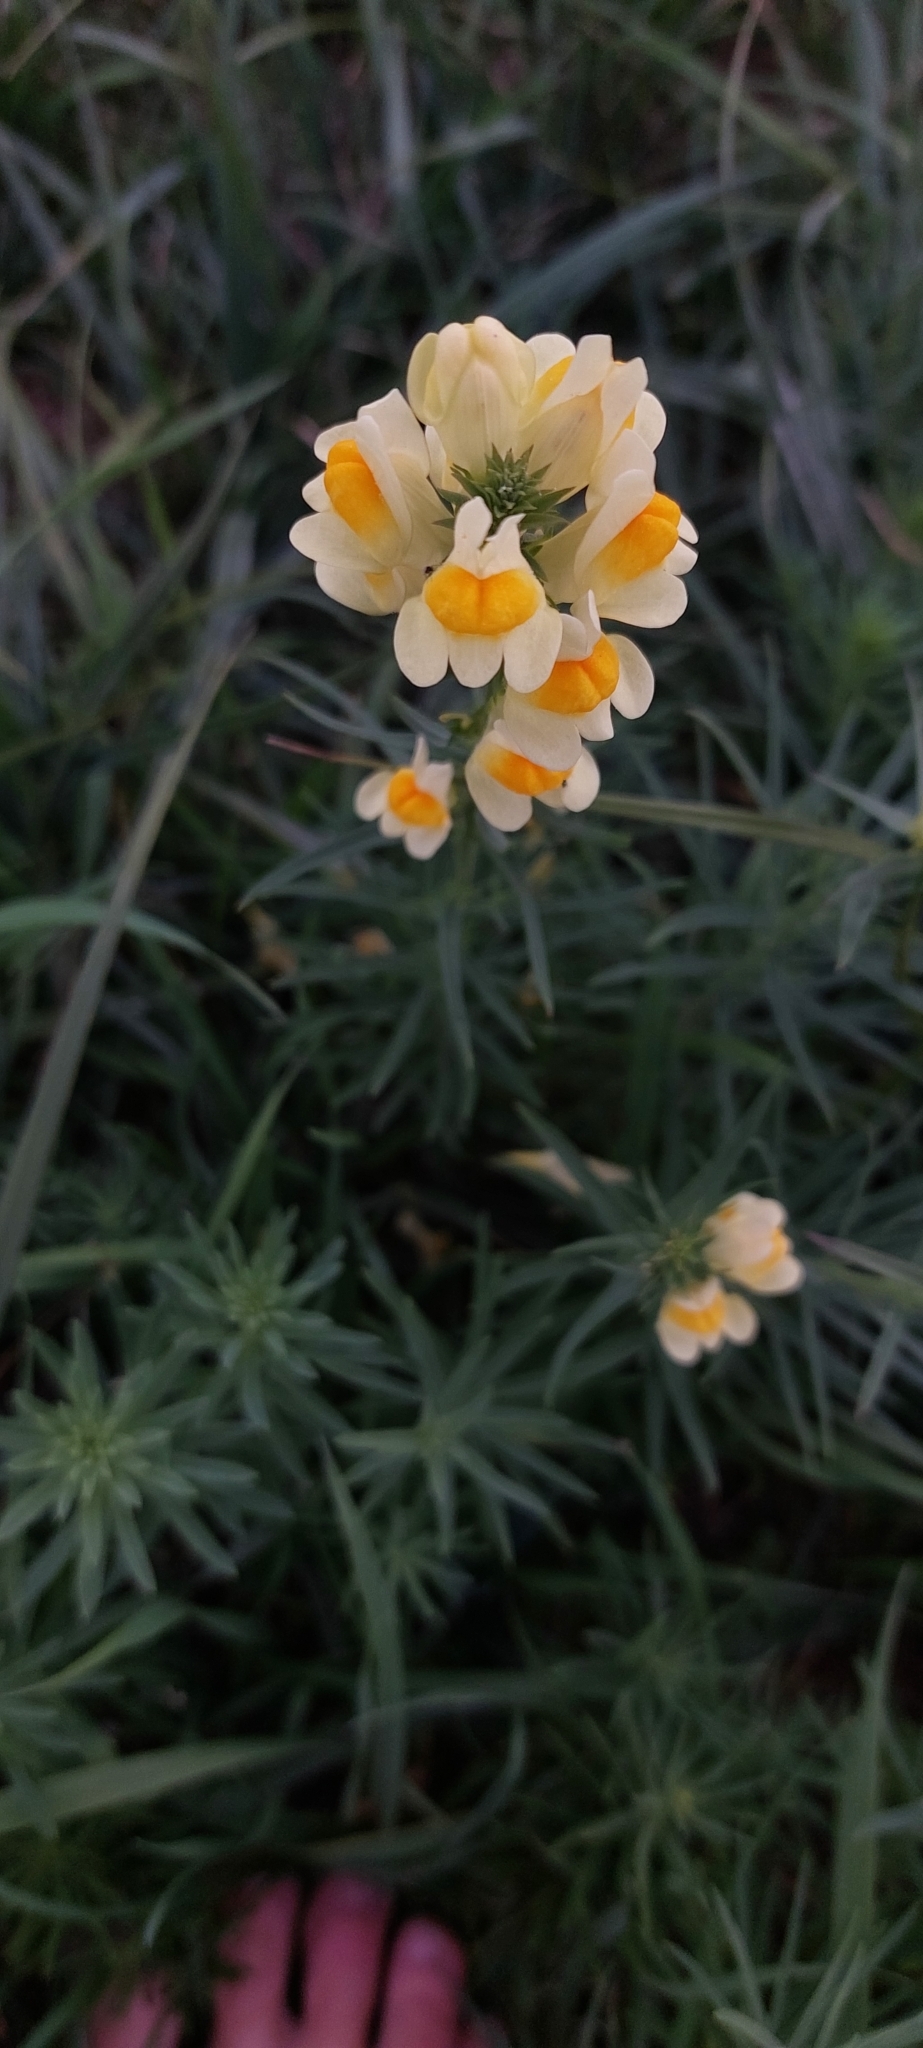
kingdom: Plantae
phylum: Tracheophyta
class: Magnoliopsida
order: Lamiales
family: Plantaginaceae
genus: Linaria
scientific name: Linaria vulgaris
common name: Butter and eggs
